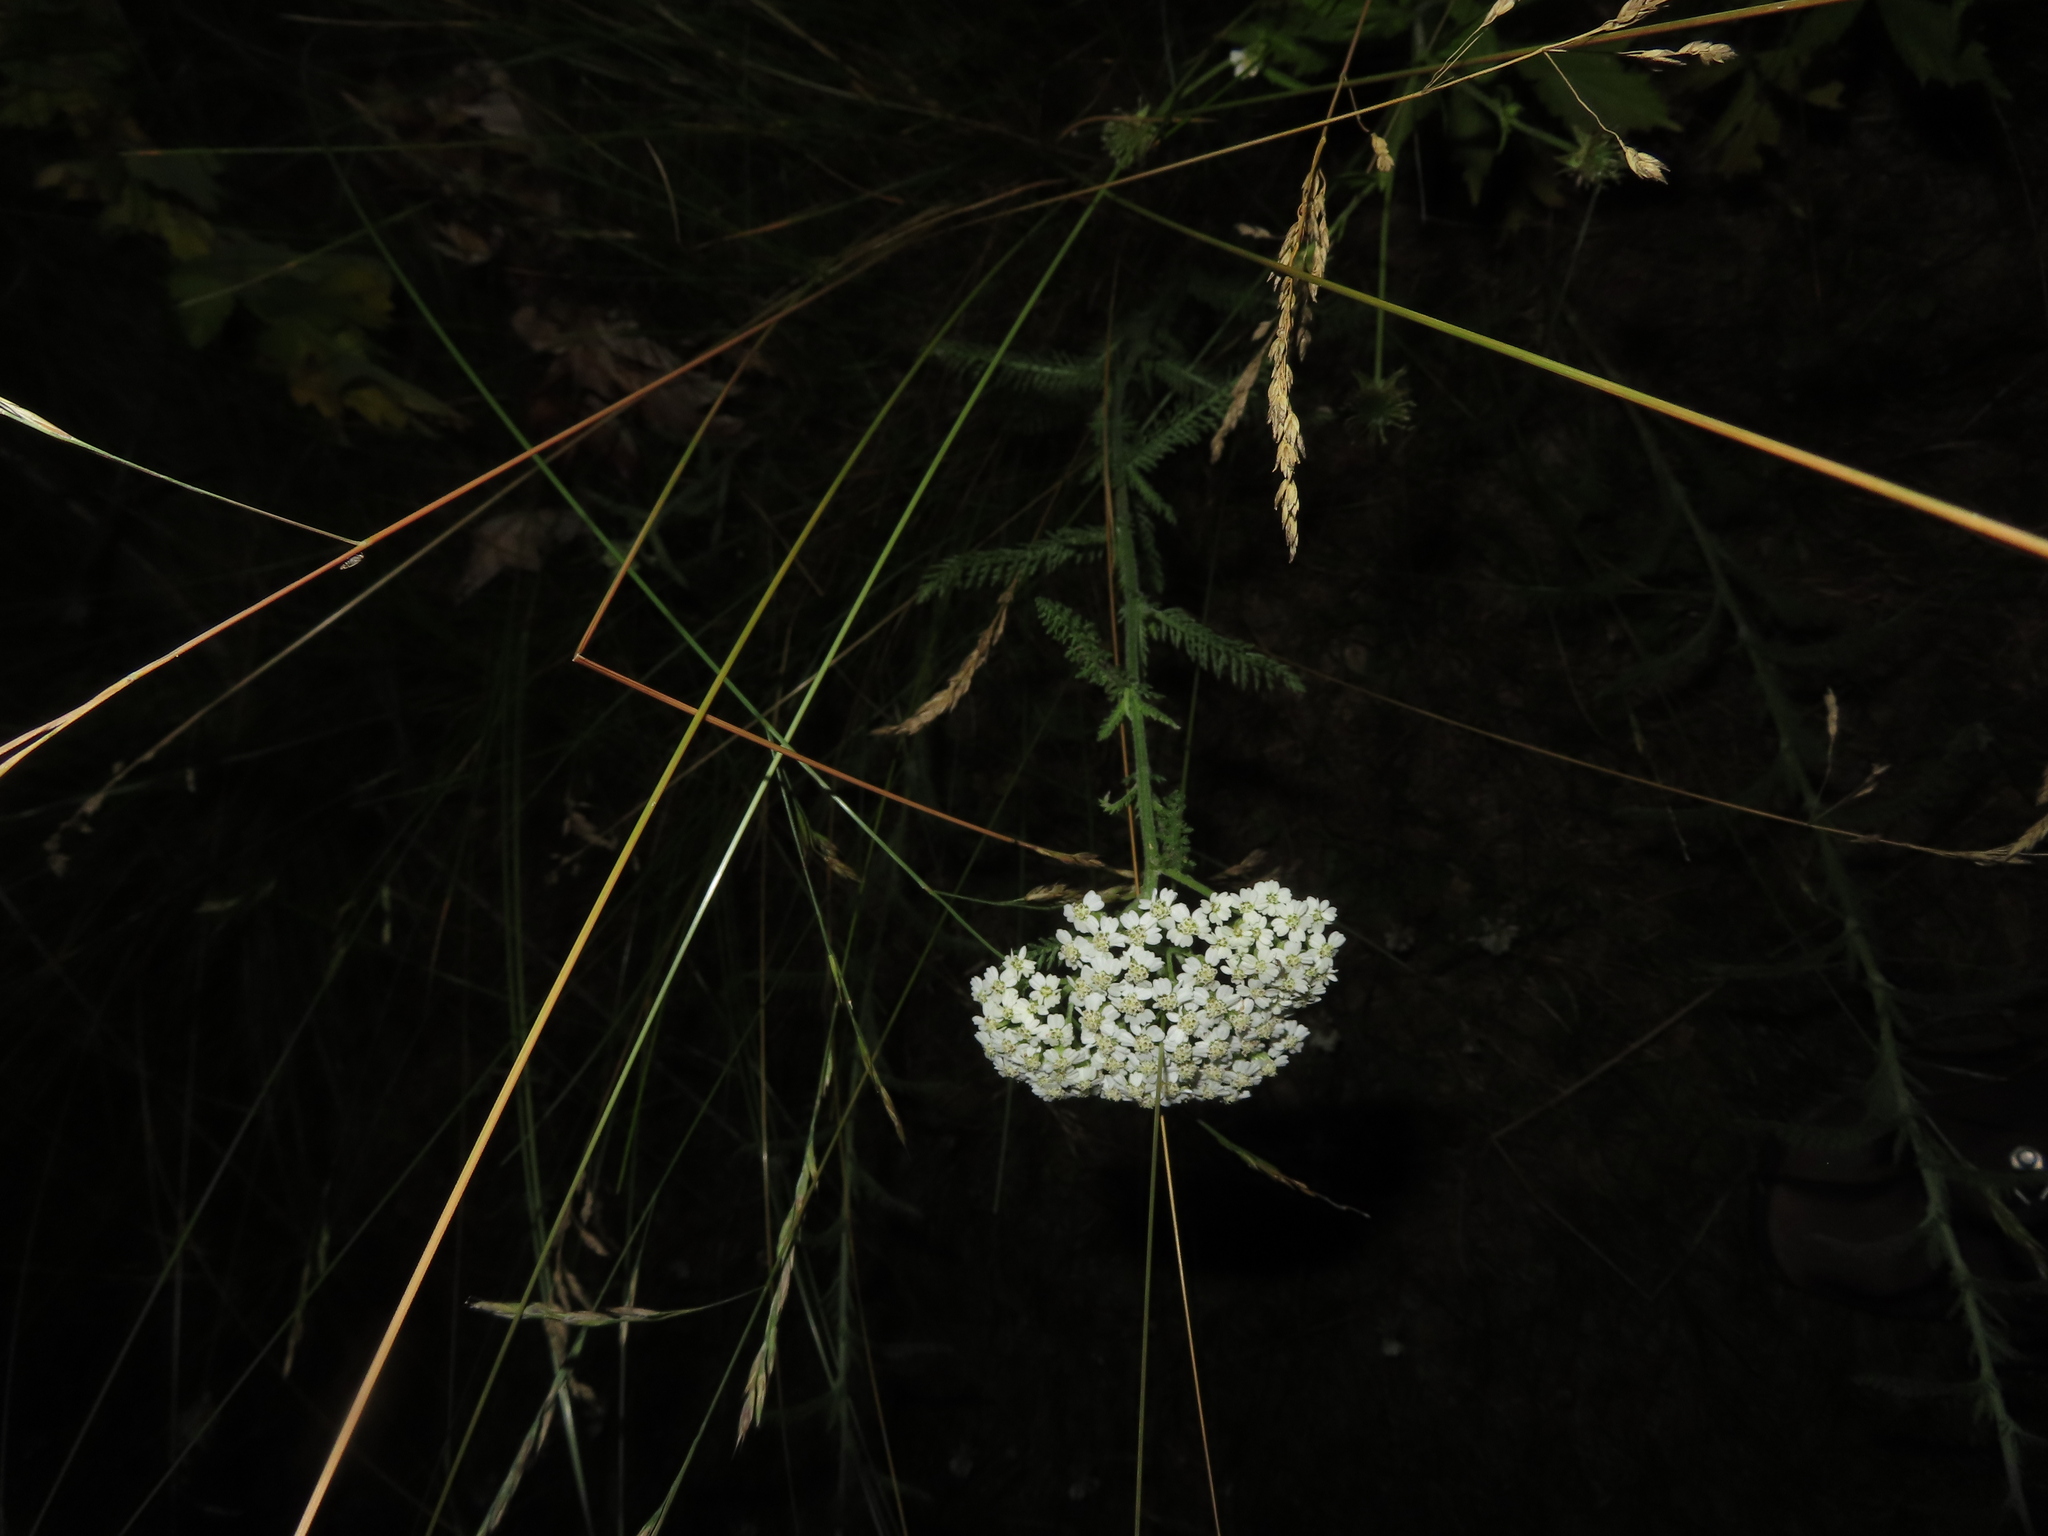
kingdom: Plantae
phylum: Tracheophyta
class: Magnoliopsida
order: Asterales
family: Asteraceae
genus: Achillea
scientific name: Achillea millefolium
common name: Yarrow
